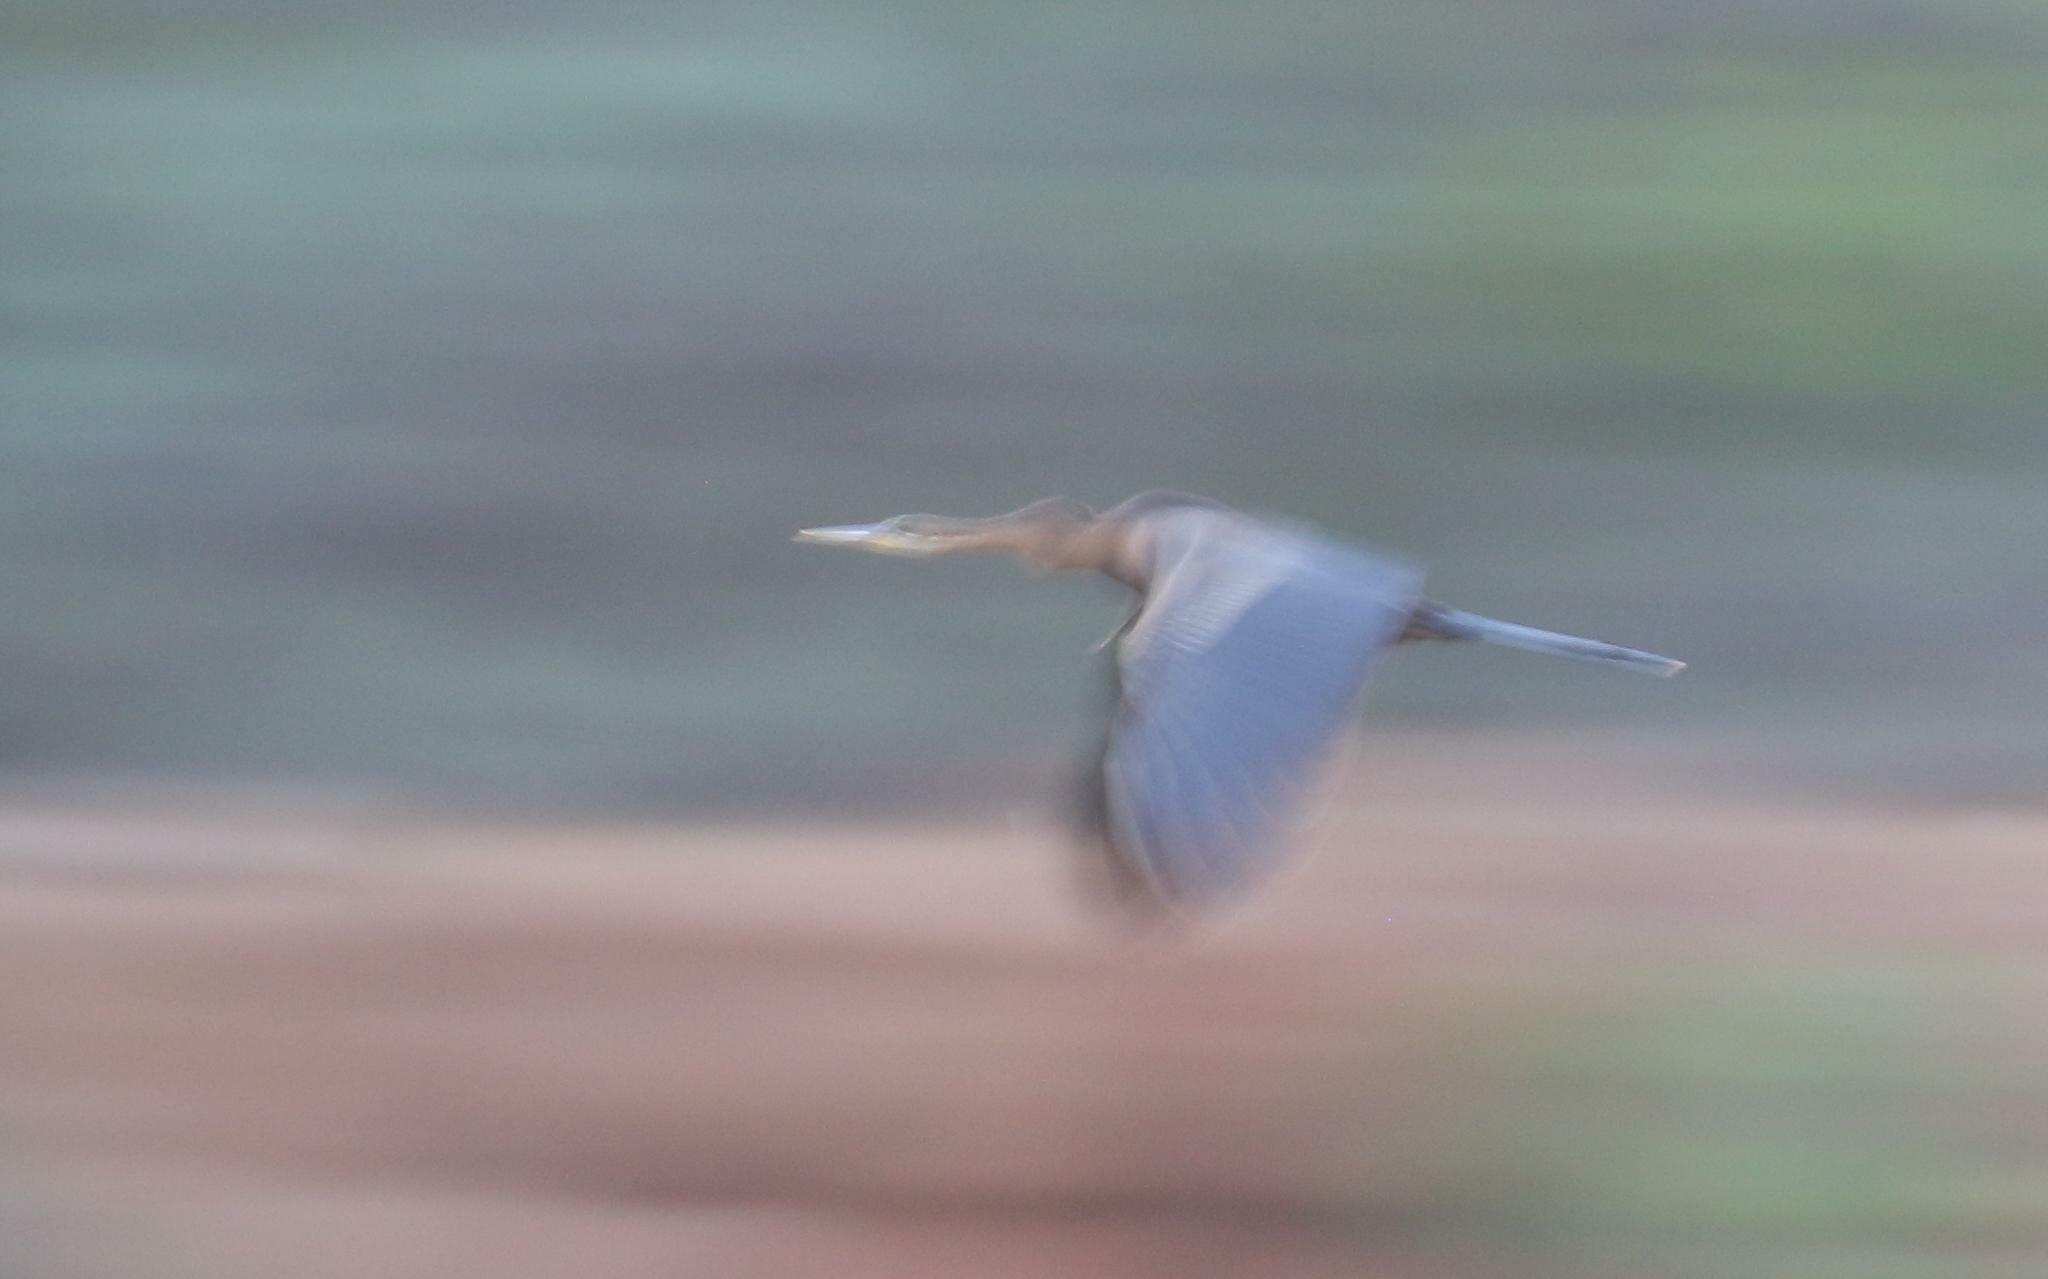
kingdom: Animalia
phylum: Chordata
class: Aves
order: Suliformes
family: Anhingidae
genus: Anhinga
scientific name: Anhinga rufa
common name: African darter
